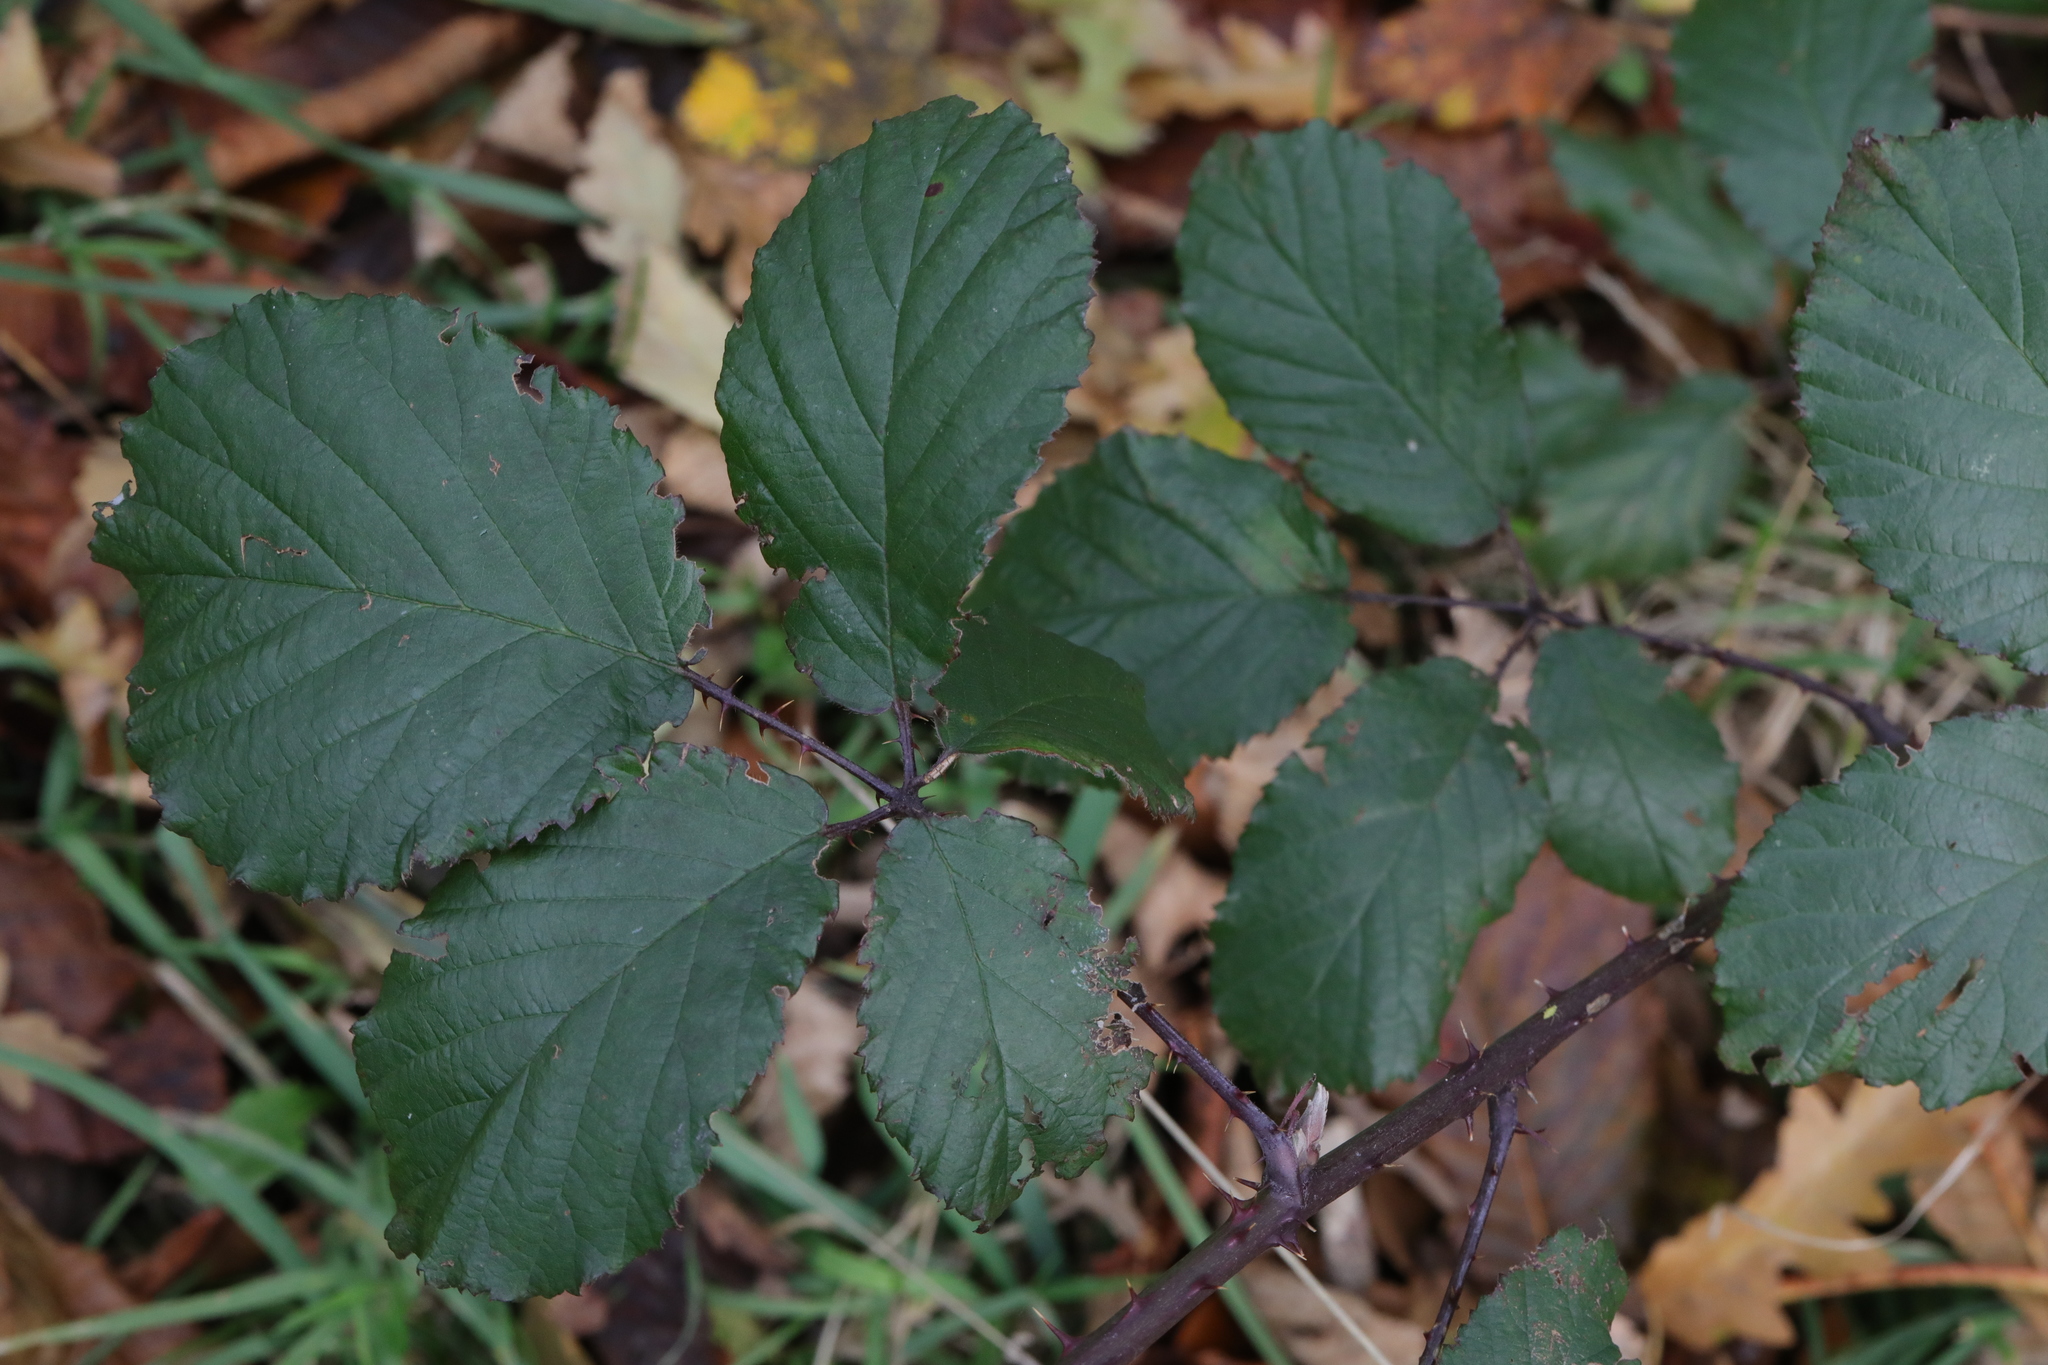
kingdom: Plantae
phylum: Tracheophyta
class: Magnoliopsida
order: Rosales
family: Rosaceae
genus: Rubus
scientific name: Rubus elegantispinosus
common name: Slender spined bramble
